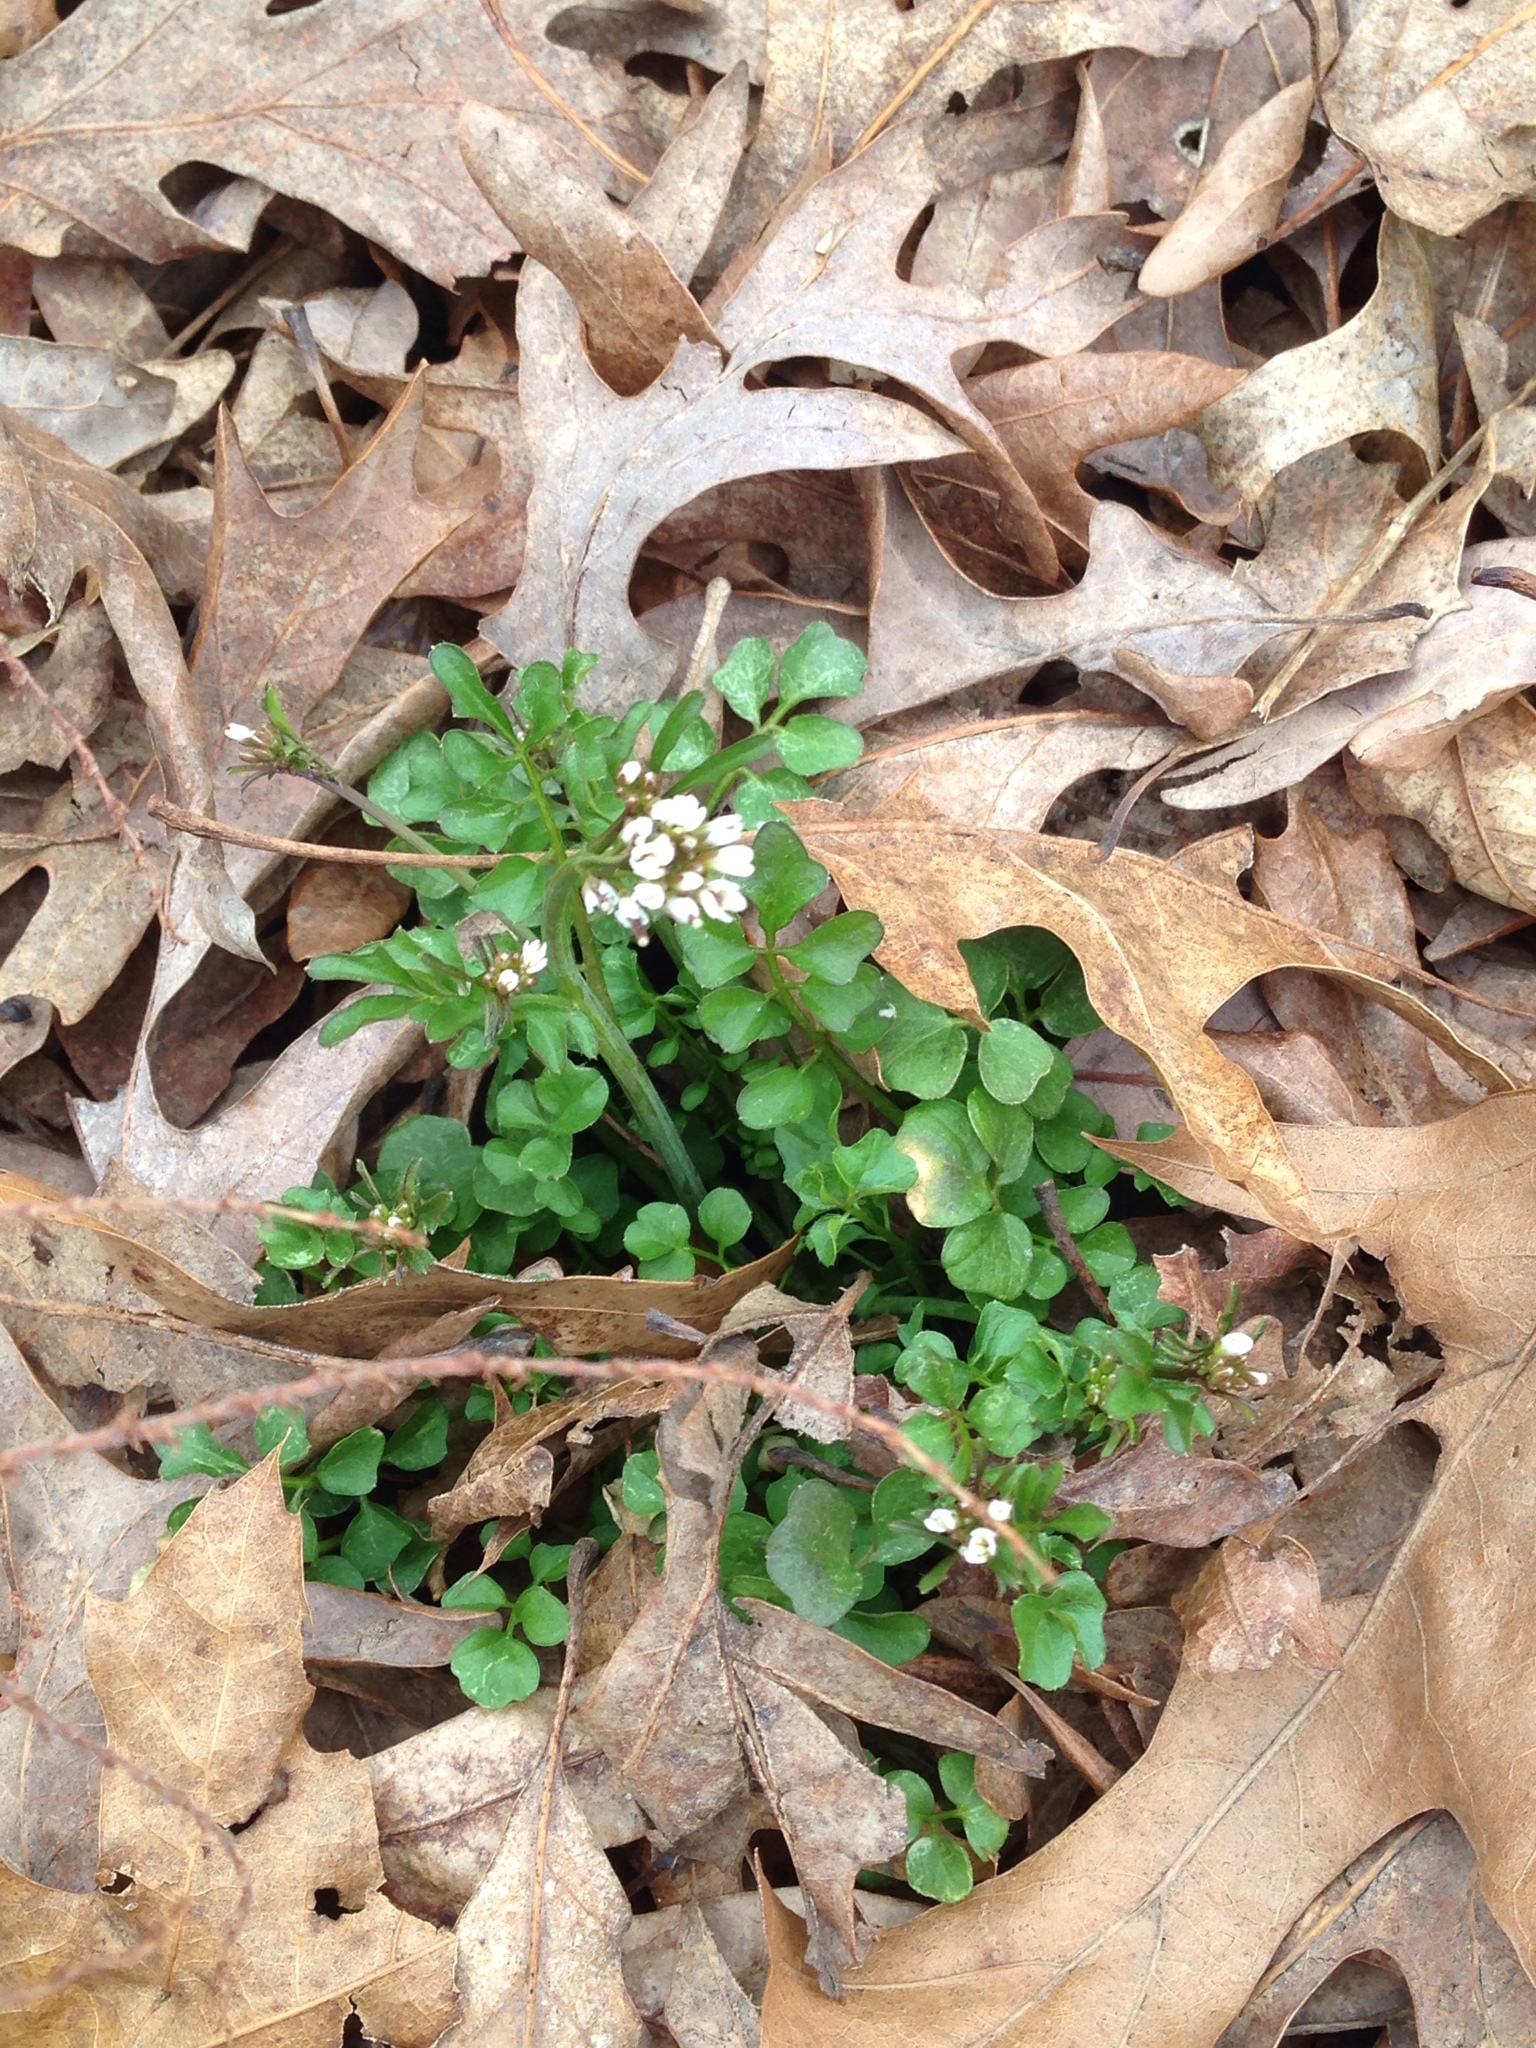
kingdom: Plantae
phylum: Tracheophyta
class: Magnoliopsida
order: Brassicales
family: Brassicaceae
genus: Cardamine
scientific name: Cardamine hirsuta
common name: Hairy bittercress
